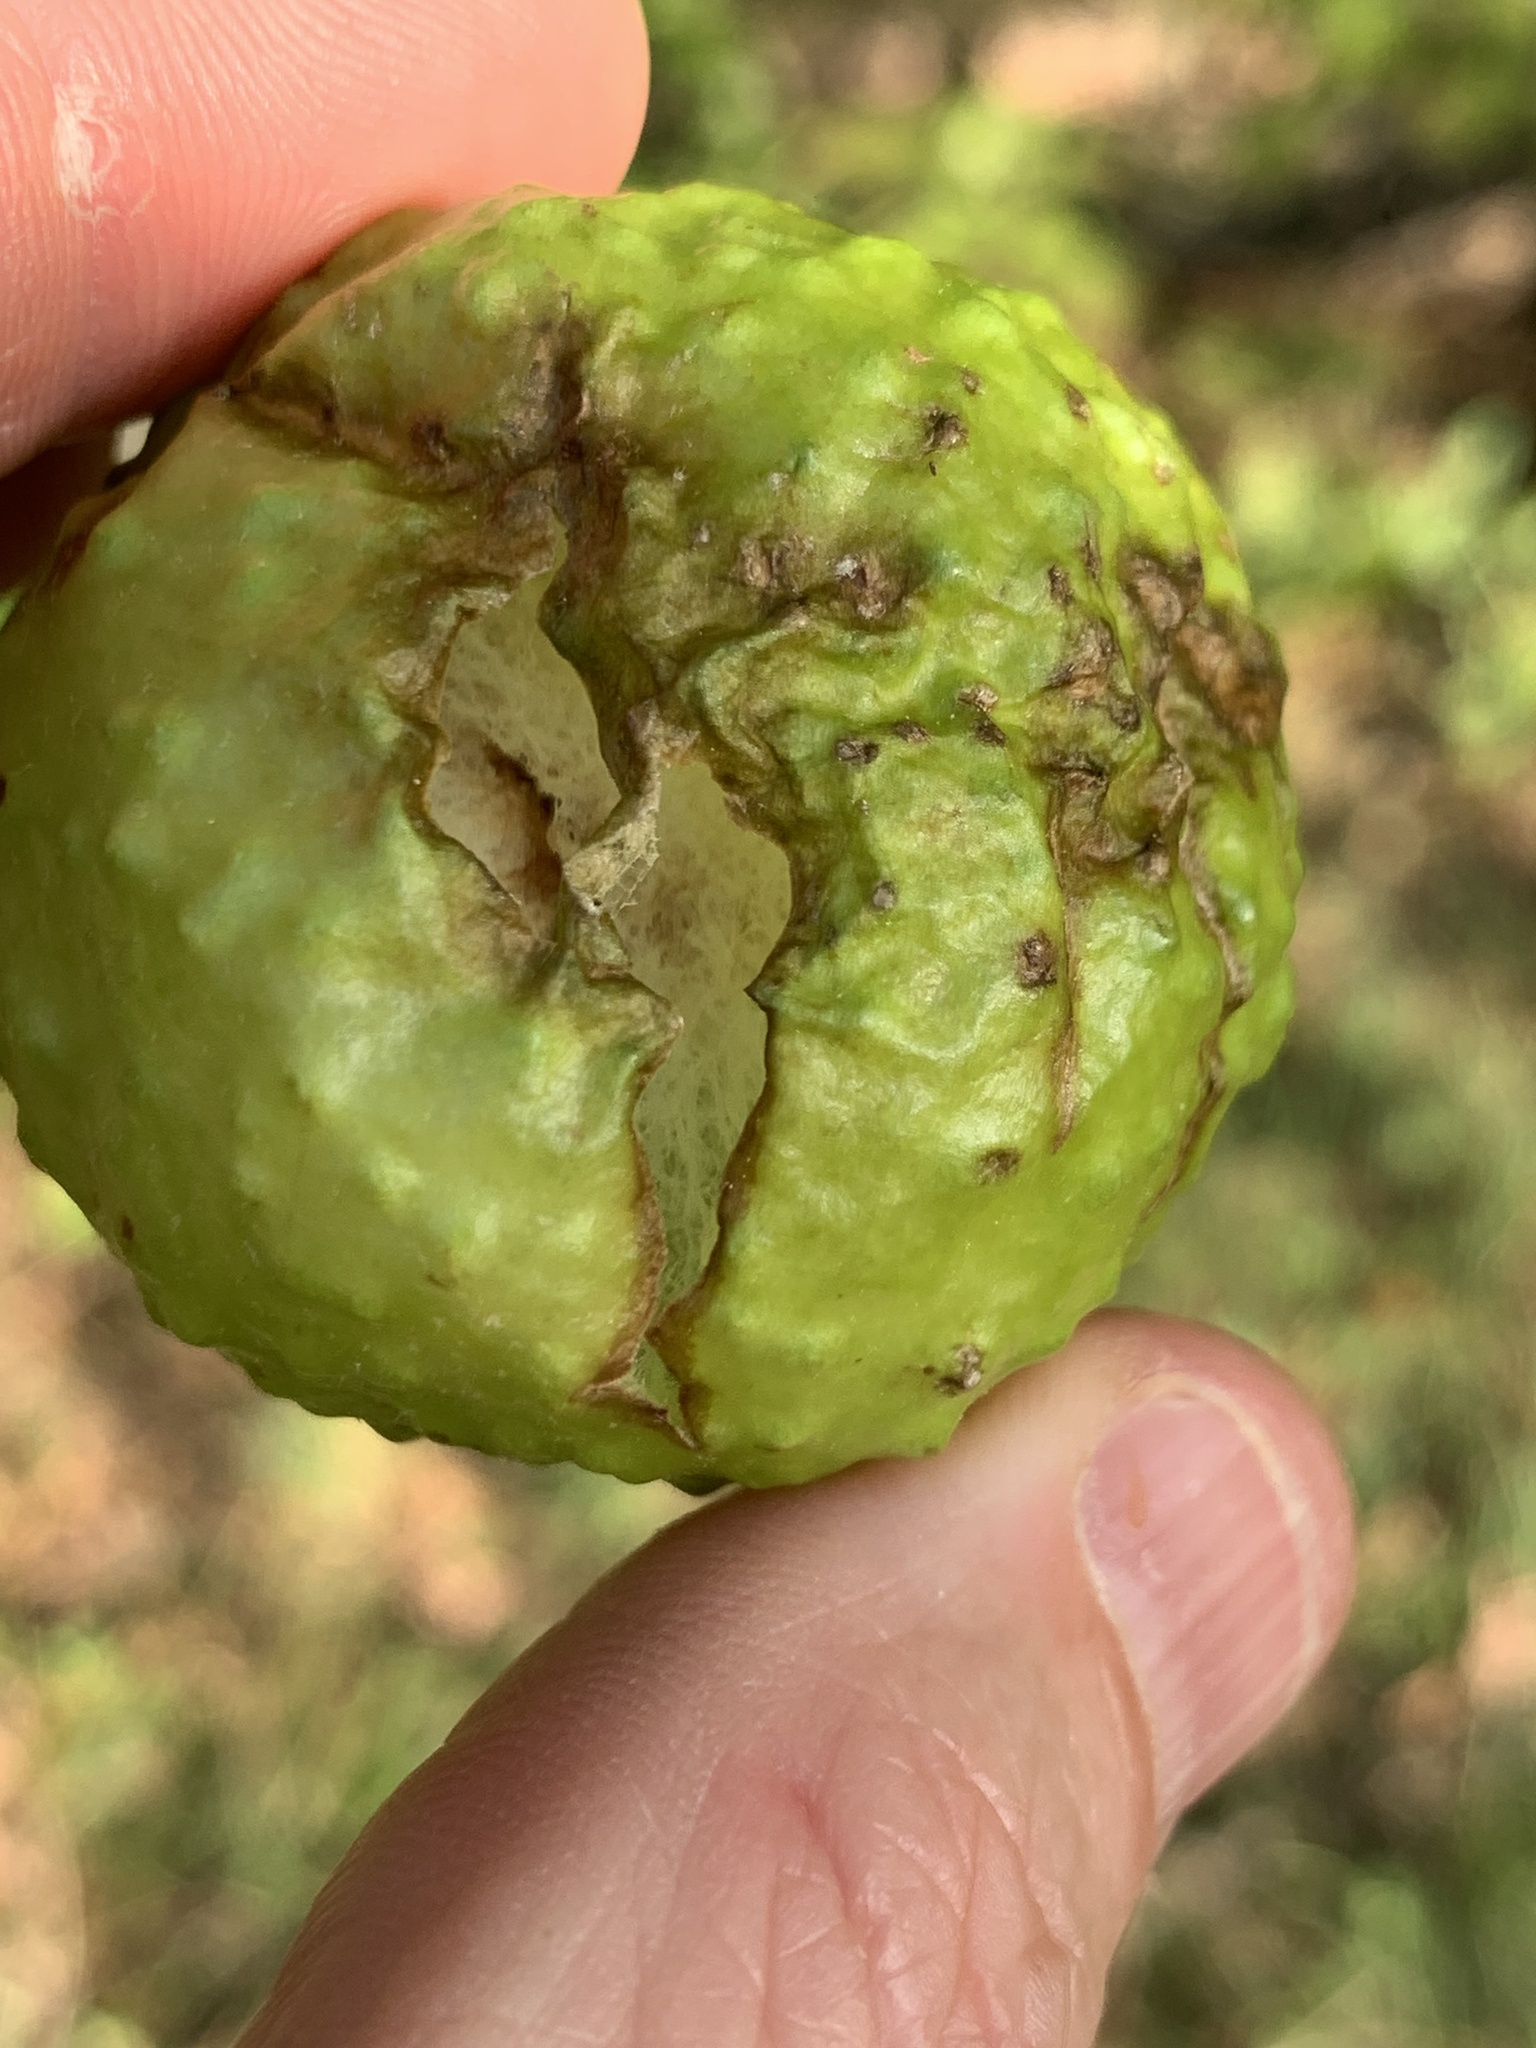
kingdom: Animalia
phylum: Arthropoda
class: Insecta
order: Hymenoptera
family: Cynipidae
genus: Amphibolips
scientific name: Amphibolips
